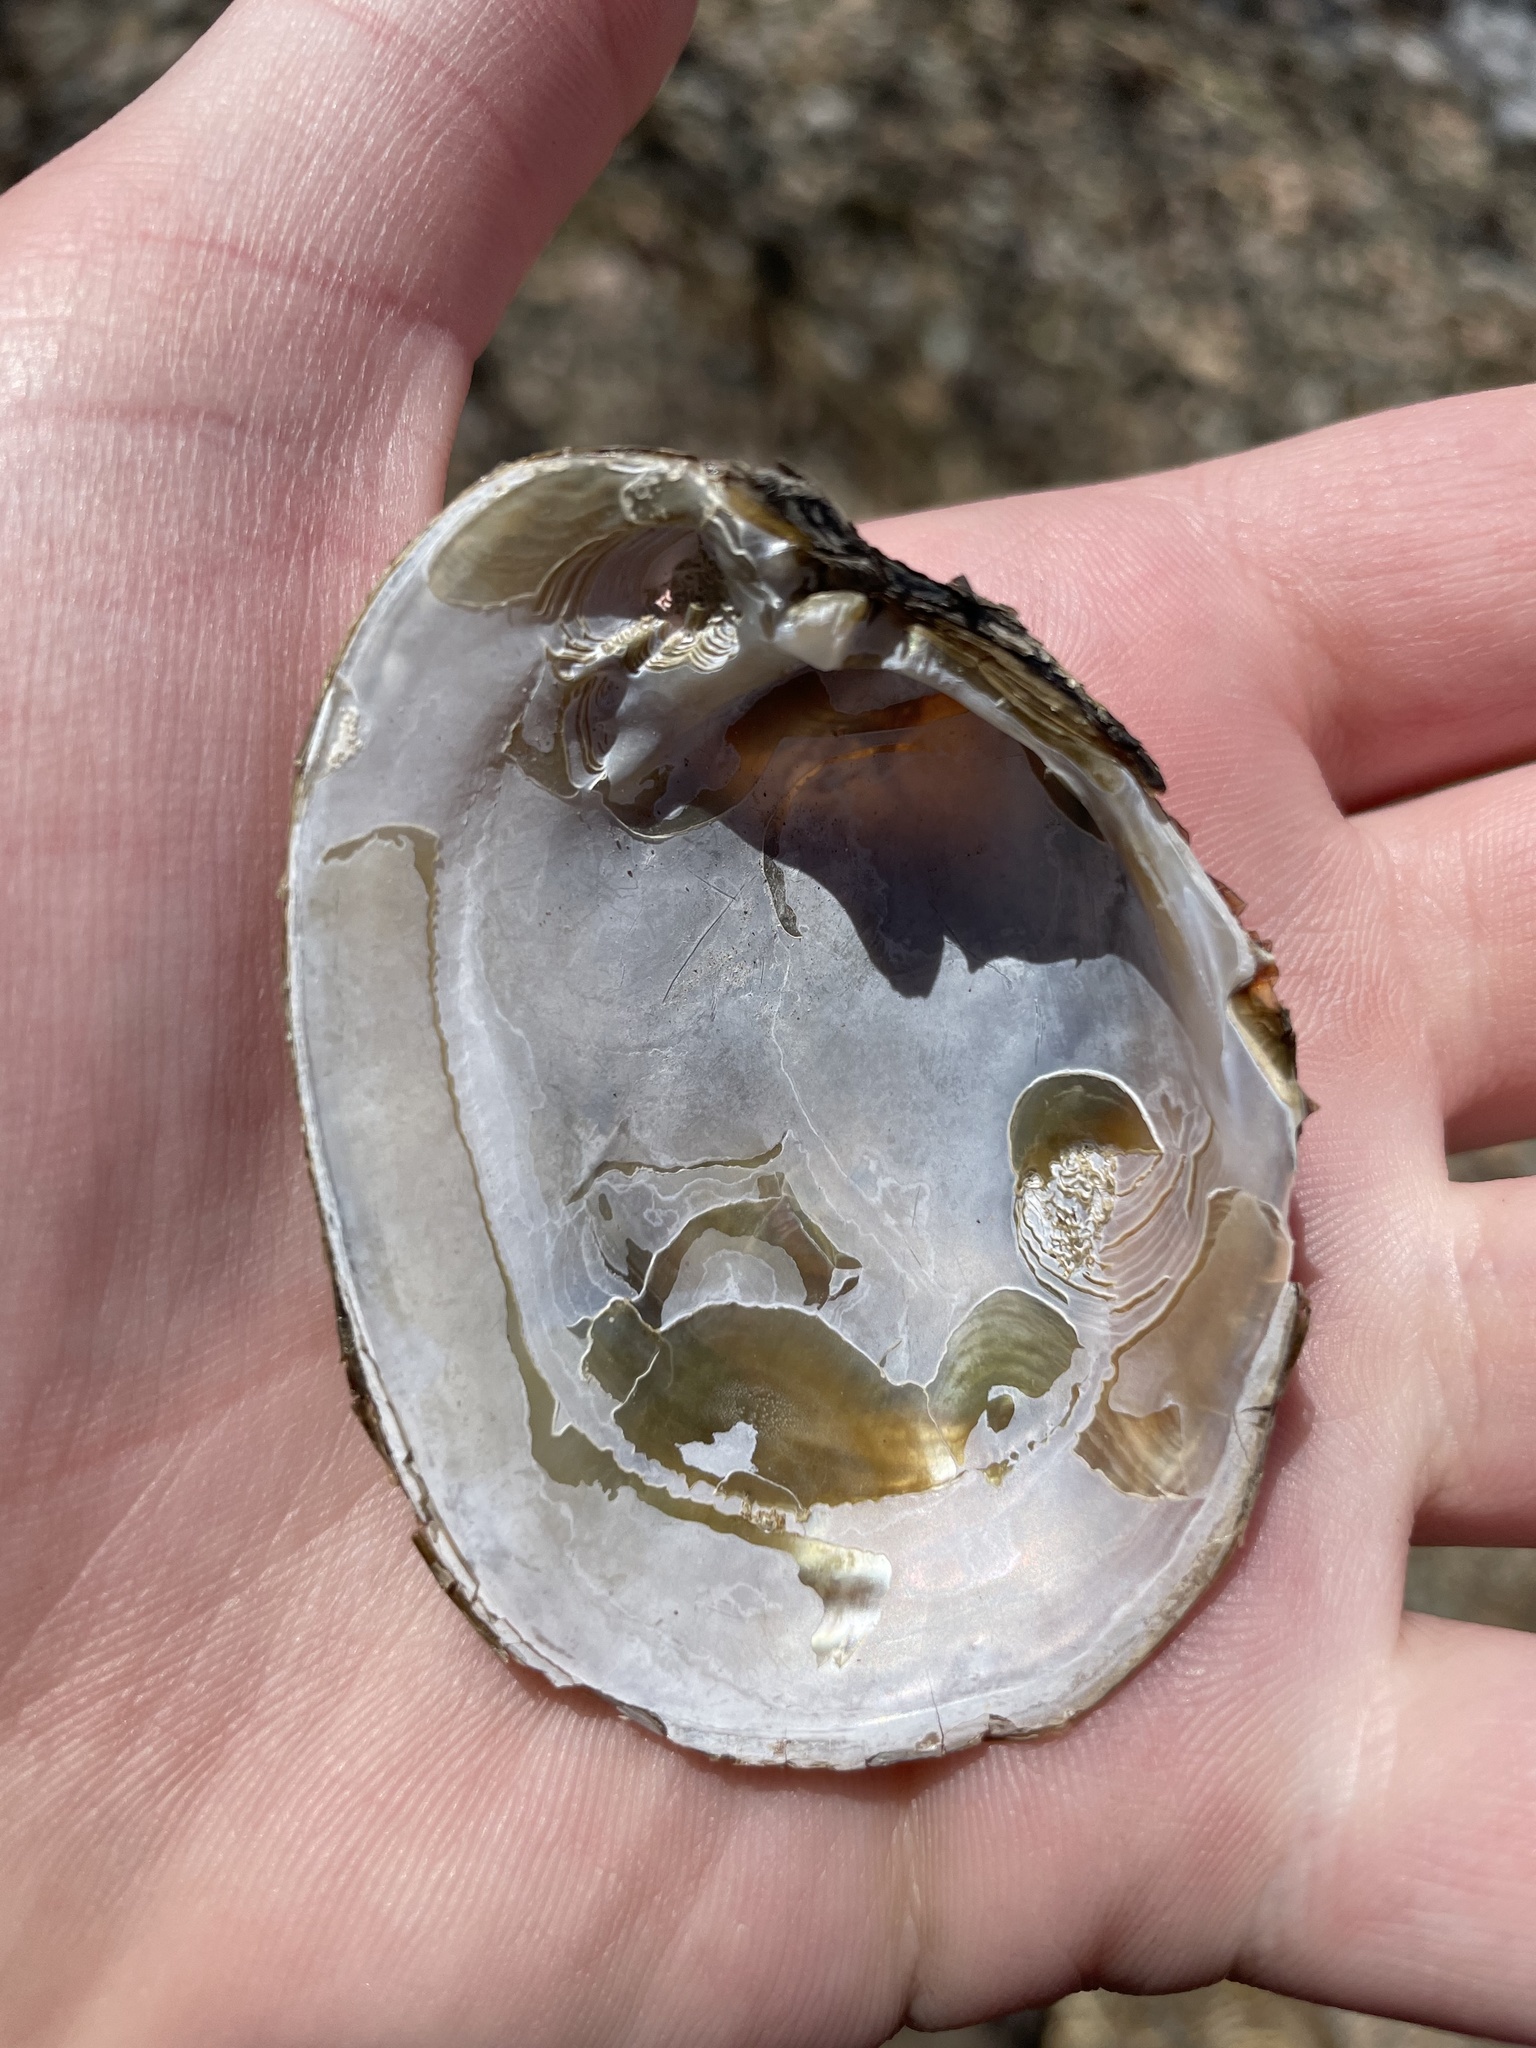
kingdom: Animalia
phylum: Mollusca
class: Bivalvia
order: Unionida
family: Unionidae
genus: Lampsilis
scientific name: Lampsilis cariosa
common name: Yellow lampmussel
